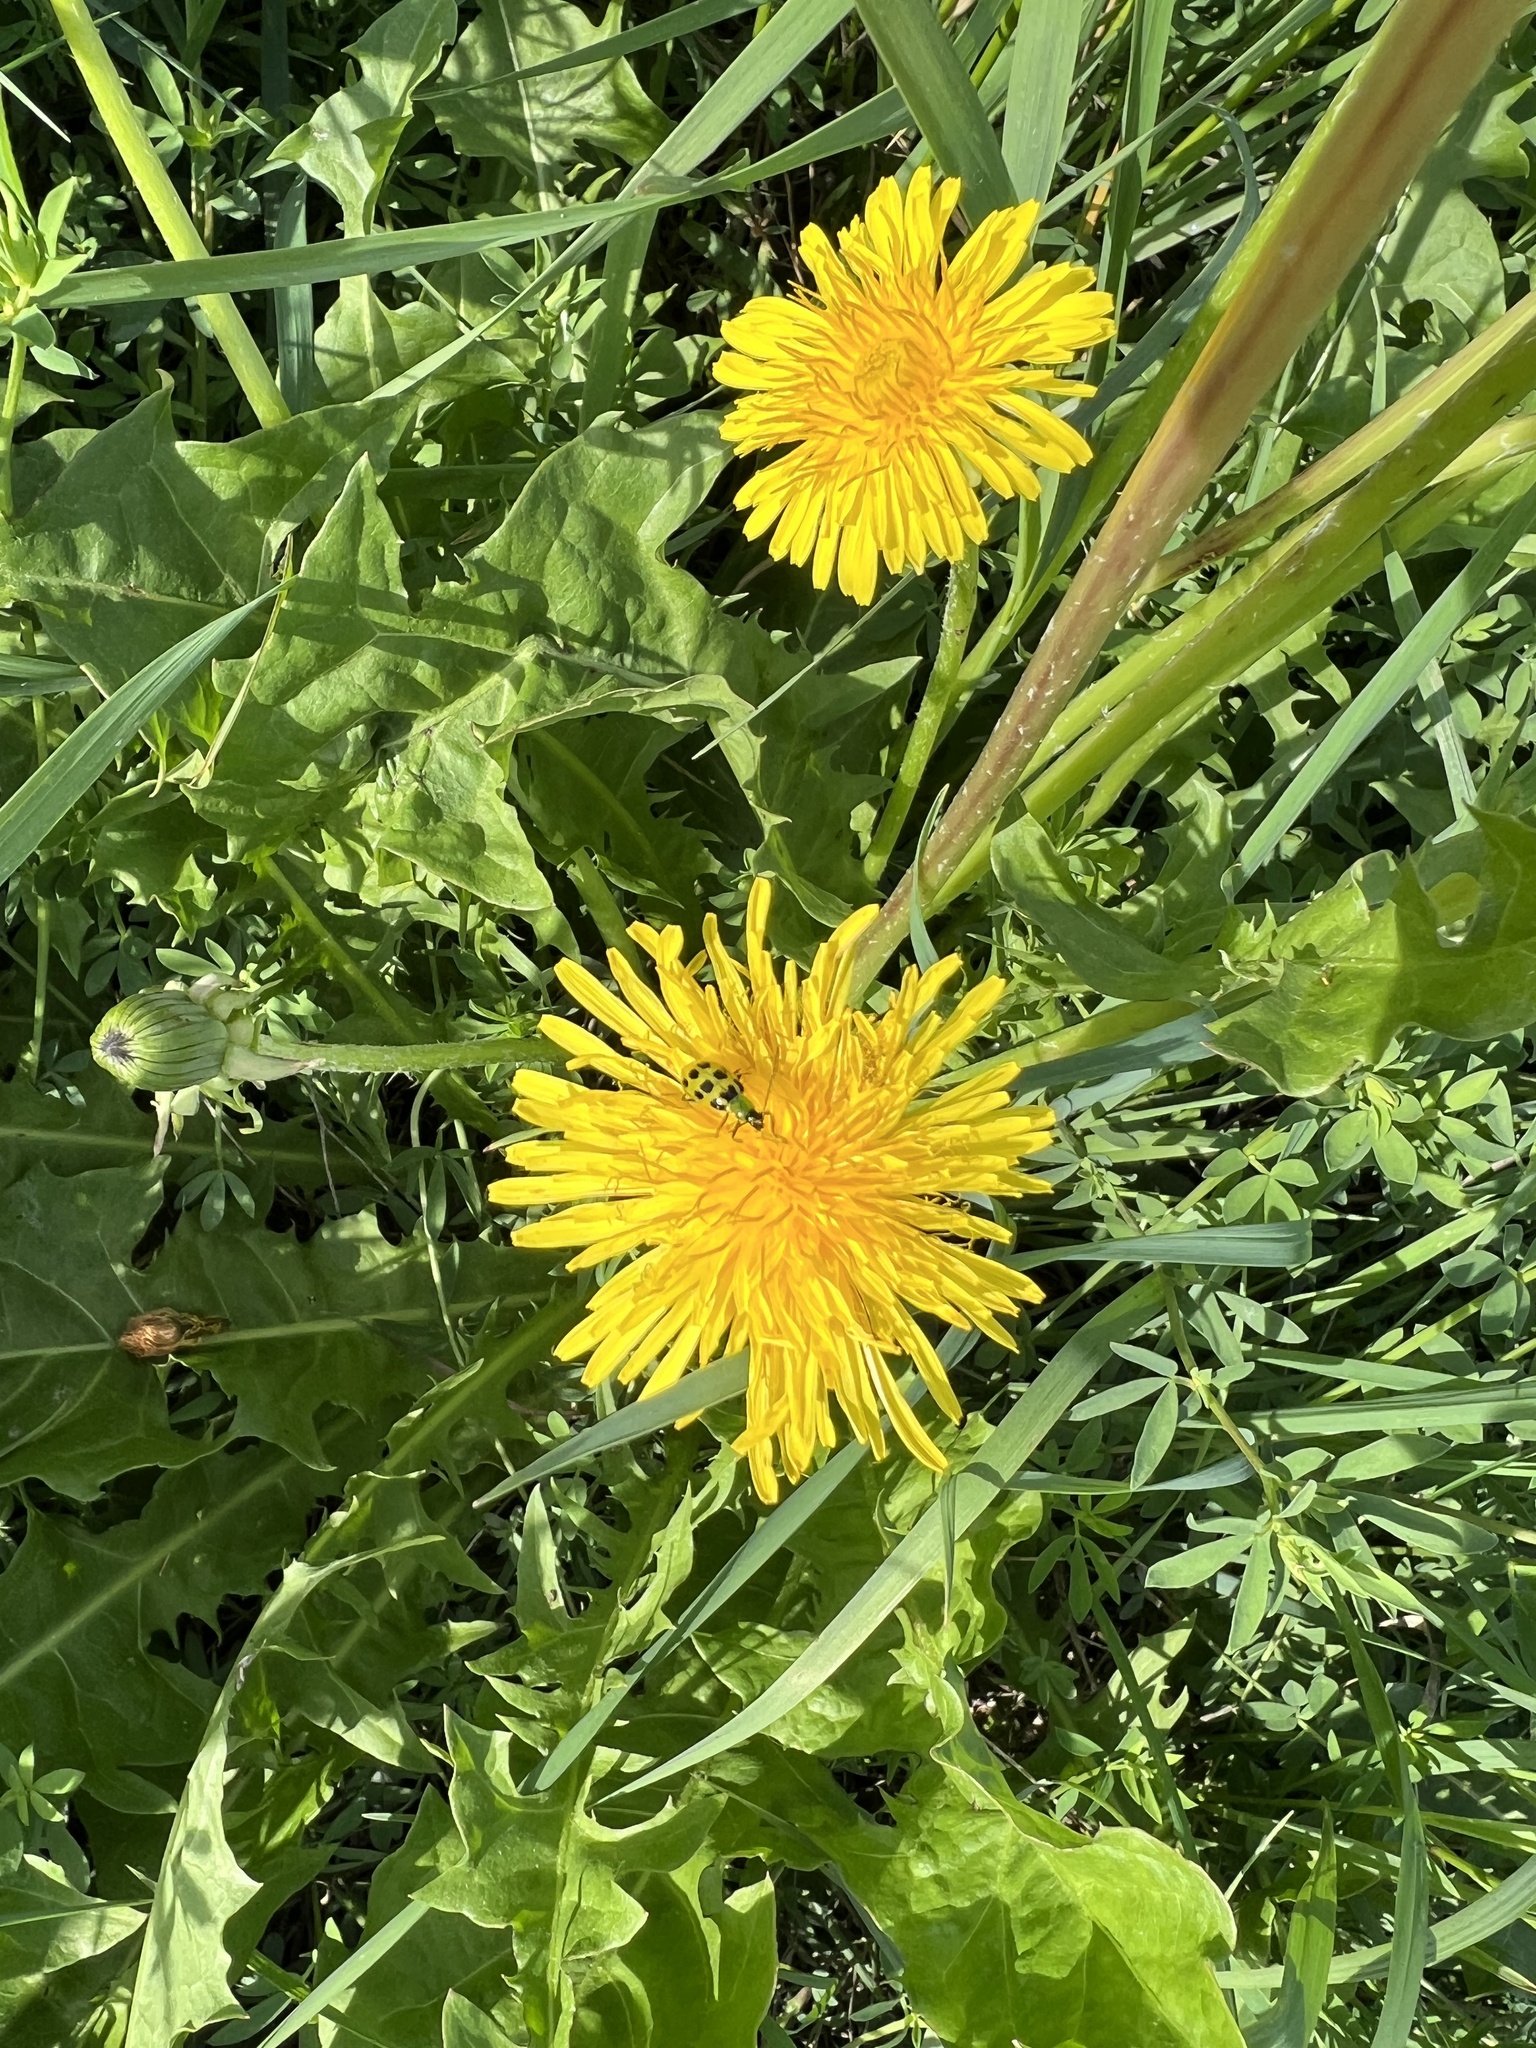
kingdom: Animalia
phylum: Arthropoda
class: Insecta
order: Coleoptera
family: Chrysomelidae
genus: Diabrotica
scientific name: Diabrotica undecimpunctata
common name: Spotted cucumber beetle
